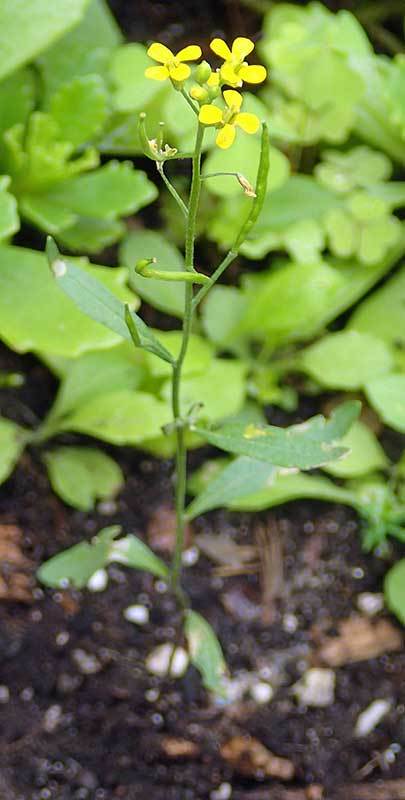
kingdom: Plantae
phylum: Tracheophyta
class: Magnoliopsida
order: Brassicales
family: Brassicaceae
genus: Erysimum
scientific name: Erysimum cheiranthoides
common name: Treacle mustard
